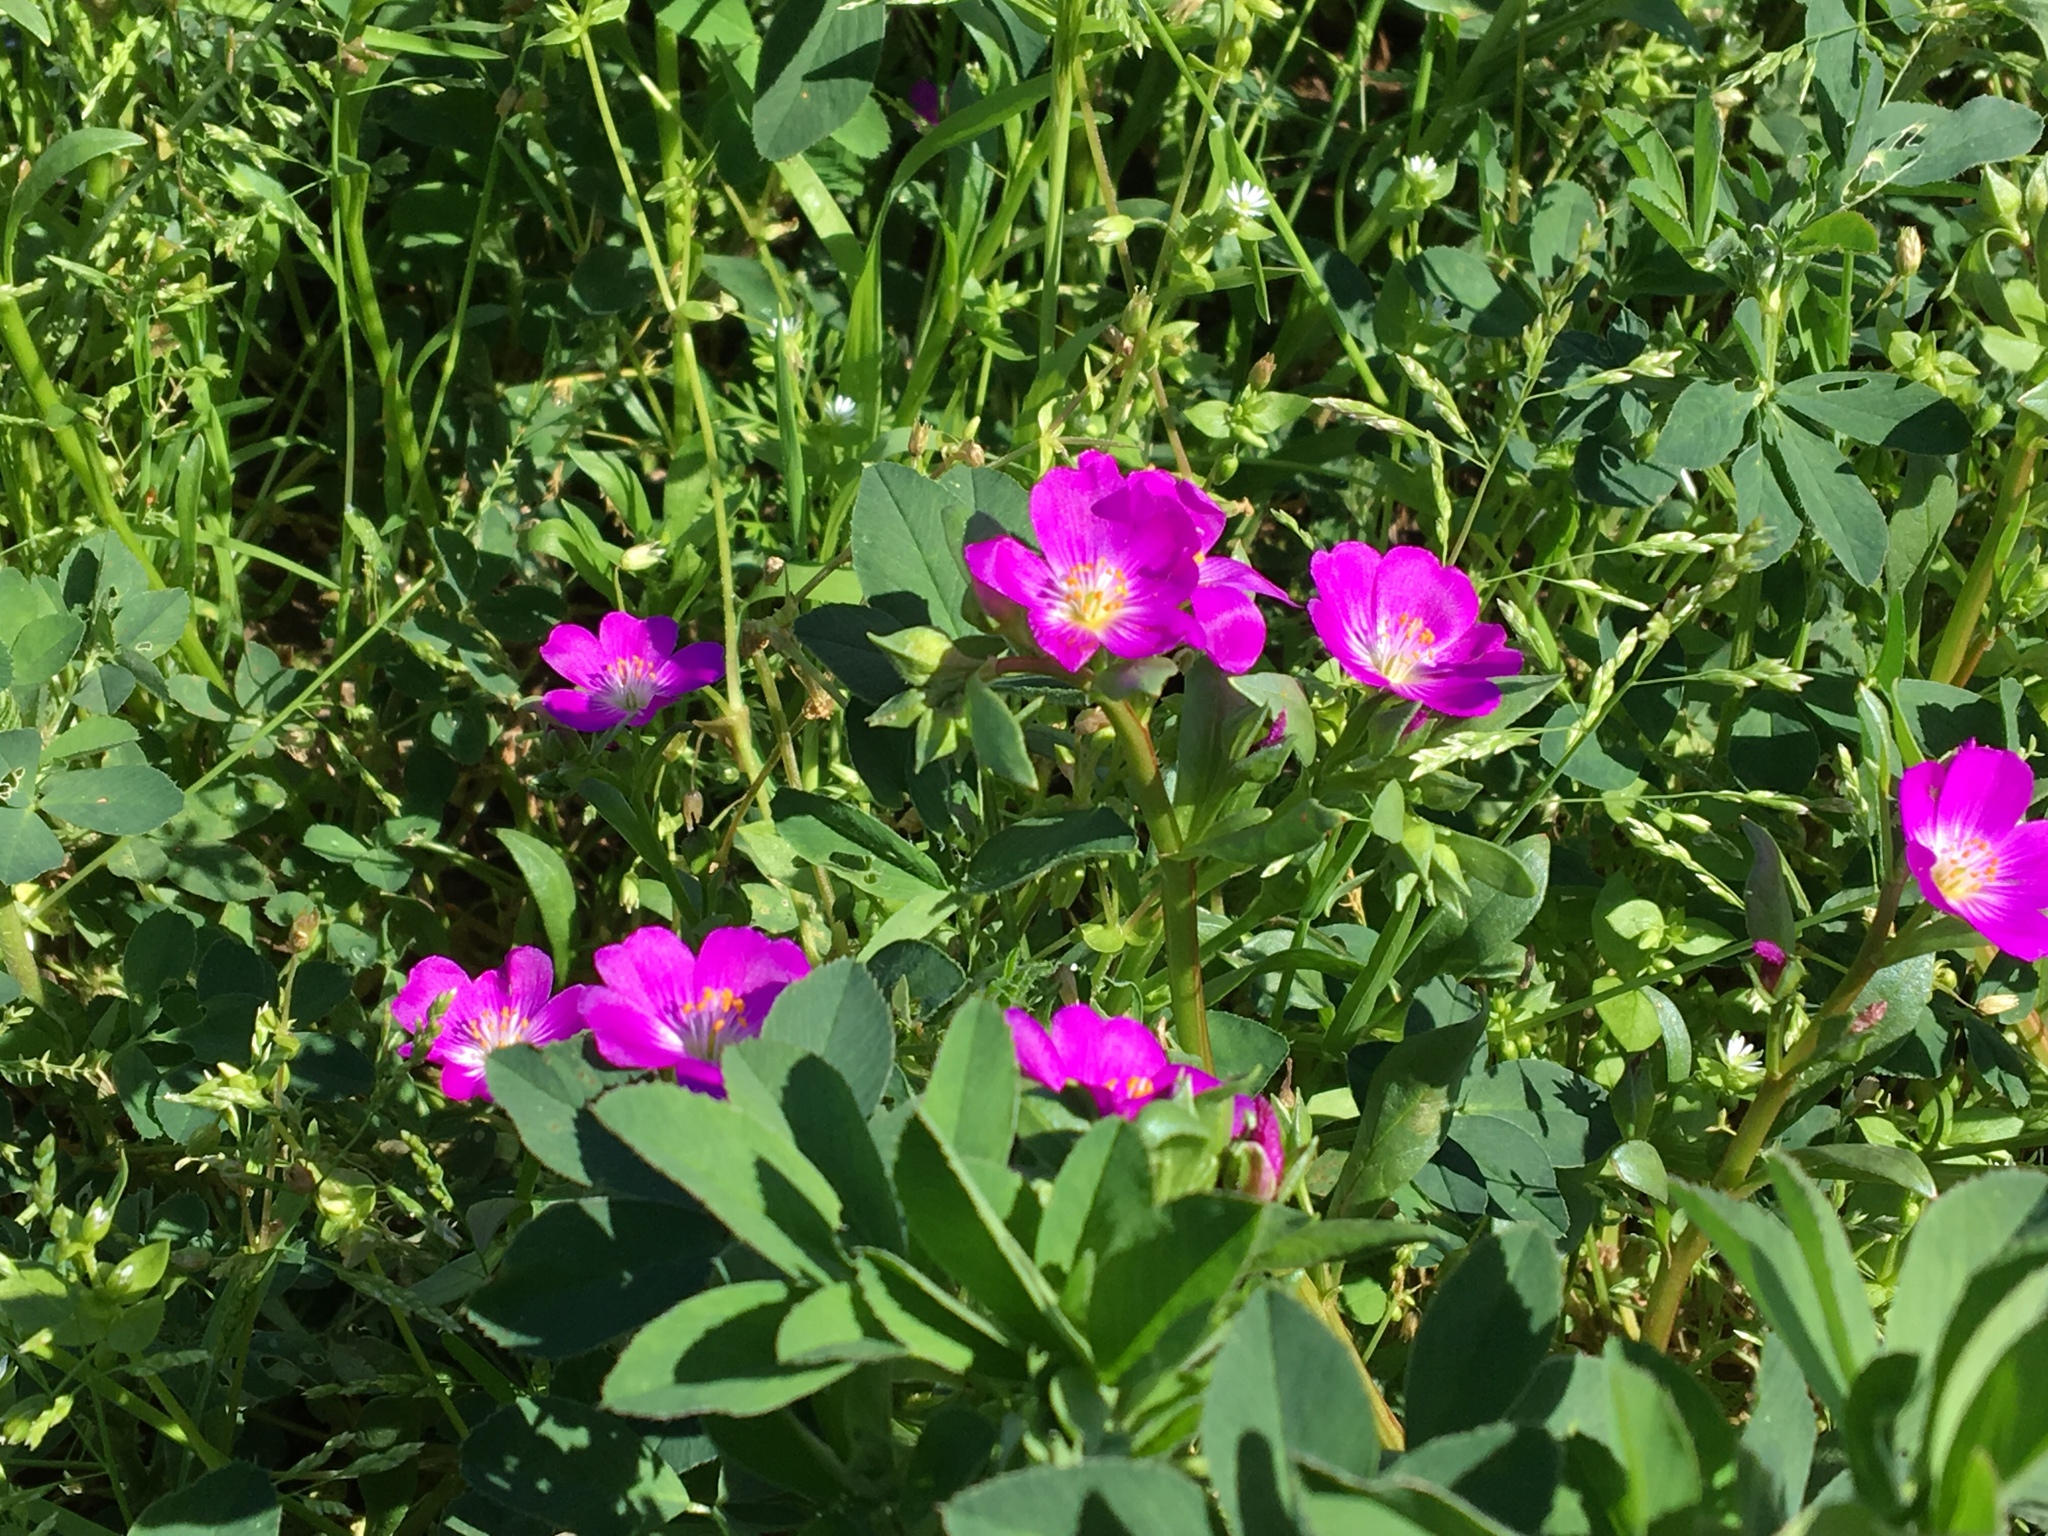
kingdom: Plantae
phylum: Tracheophyta
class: Magnoliopsida
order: Caryophyllales
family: Montiaceae
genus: Calandrinia
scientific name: Calandrinia menziesii
